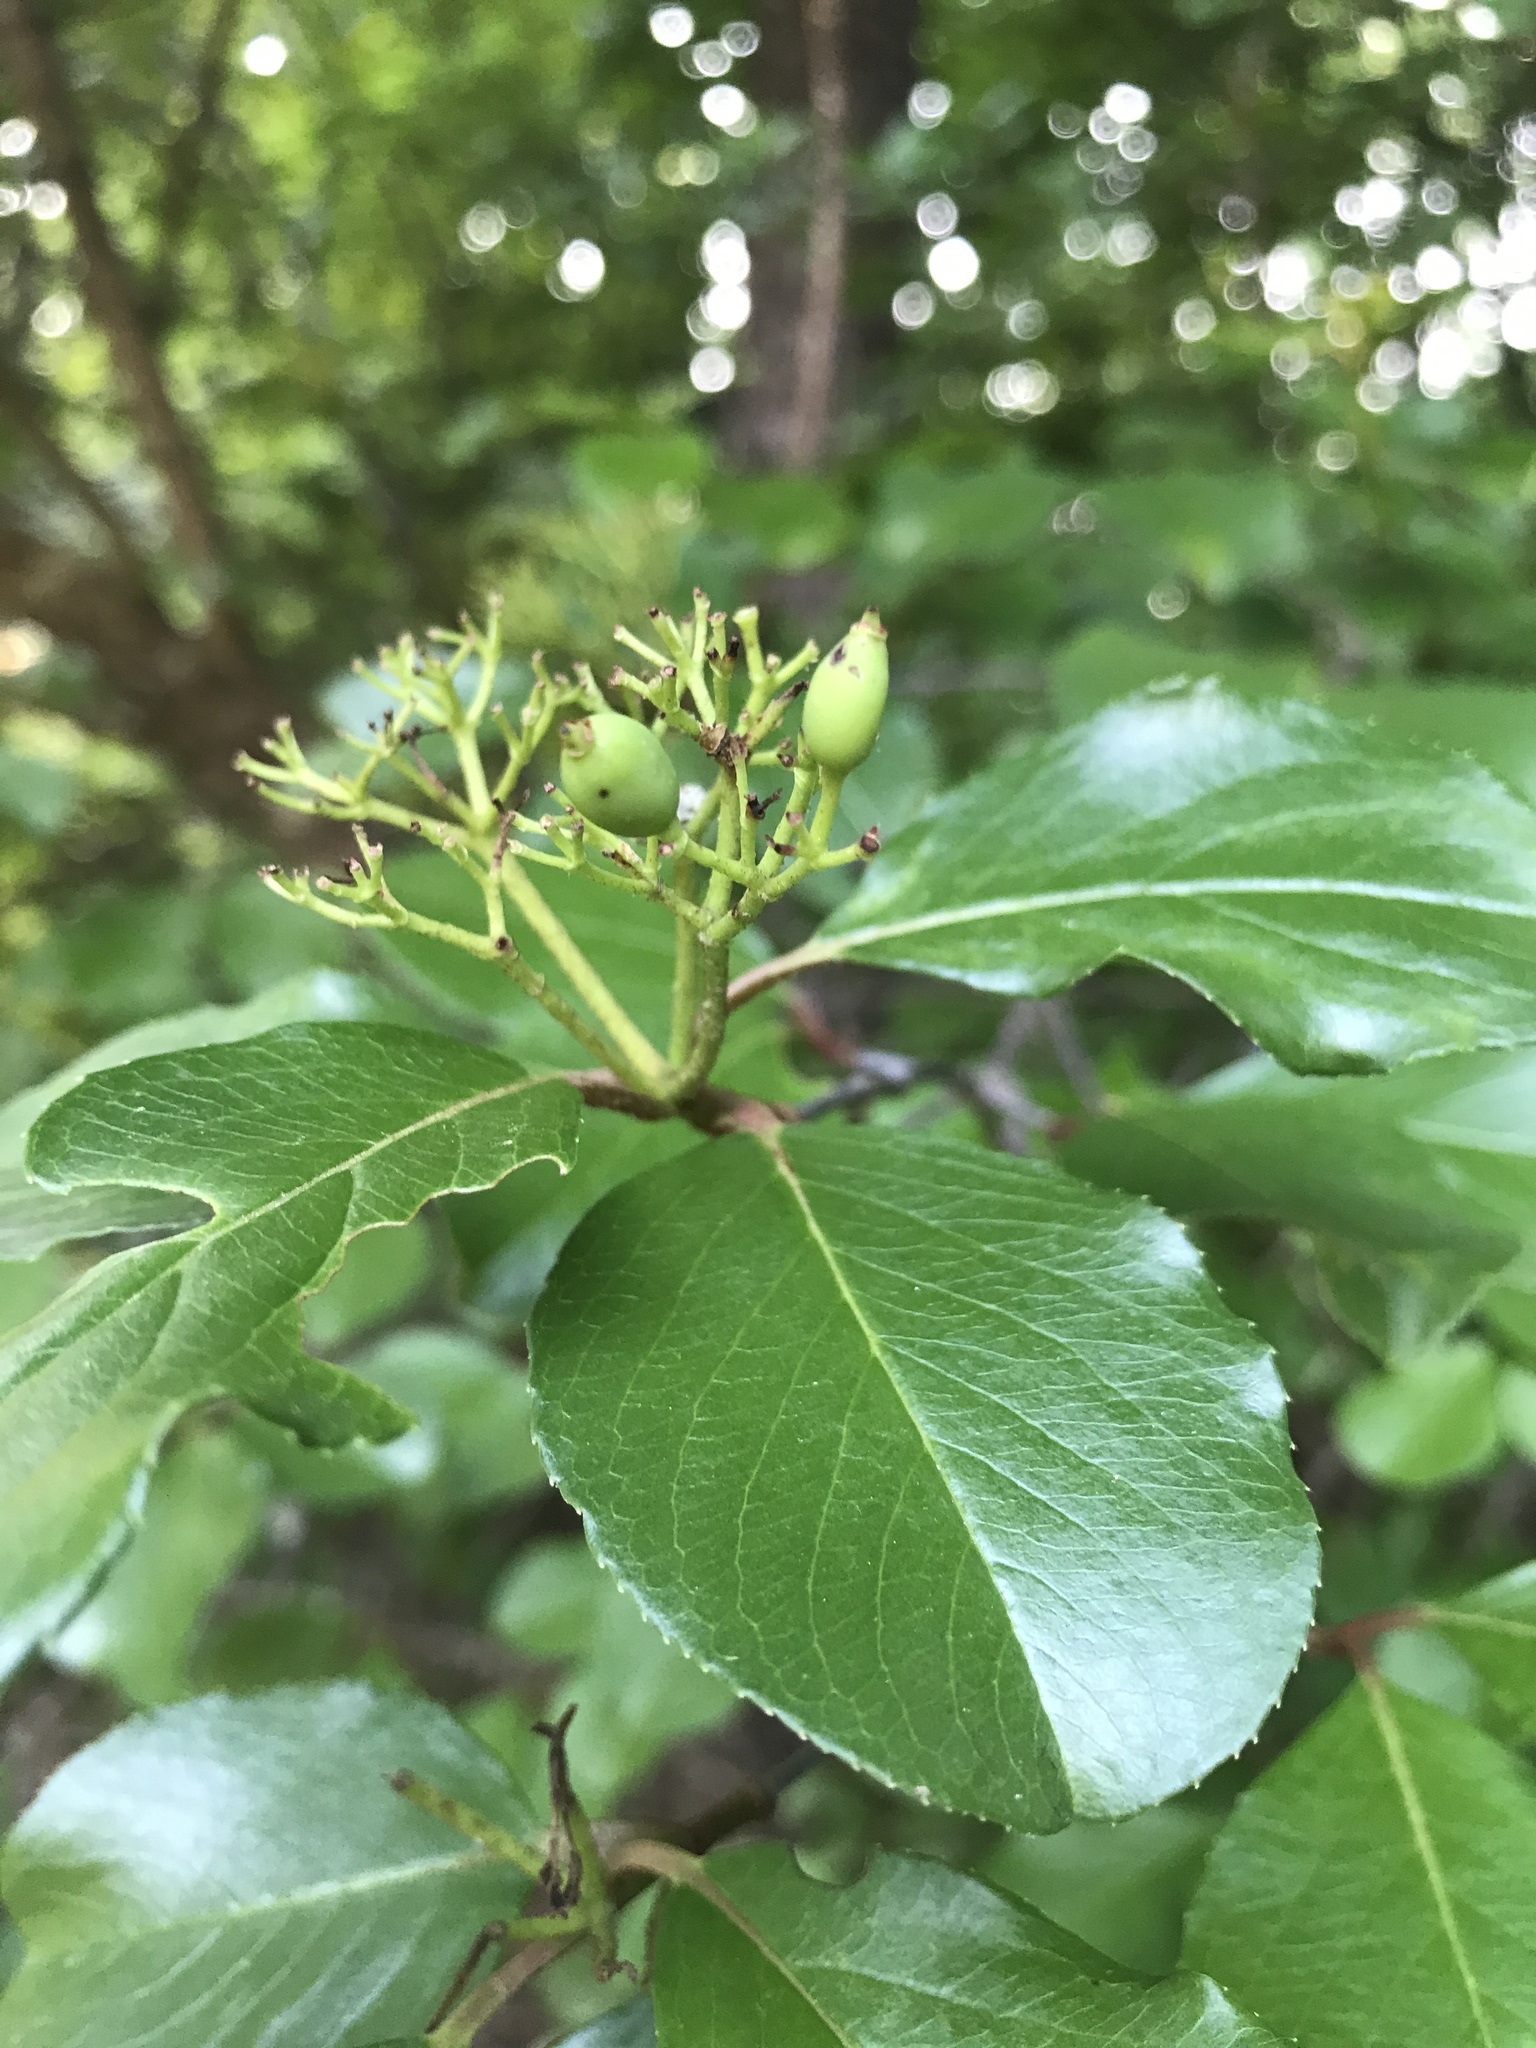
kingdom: Plantae
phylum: Tracheophyta
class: Magnoliopsida
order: Dipsacales
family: Viburnaceae
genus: Viburnum
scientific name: Viburnum rufidulum
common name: Blue haw
